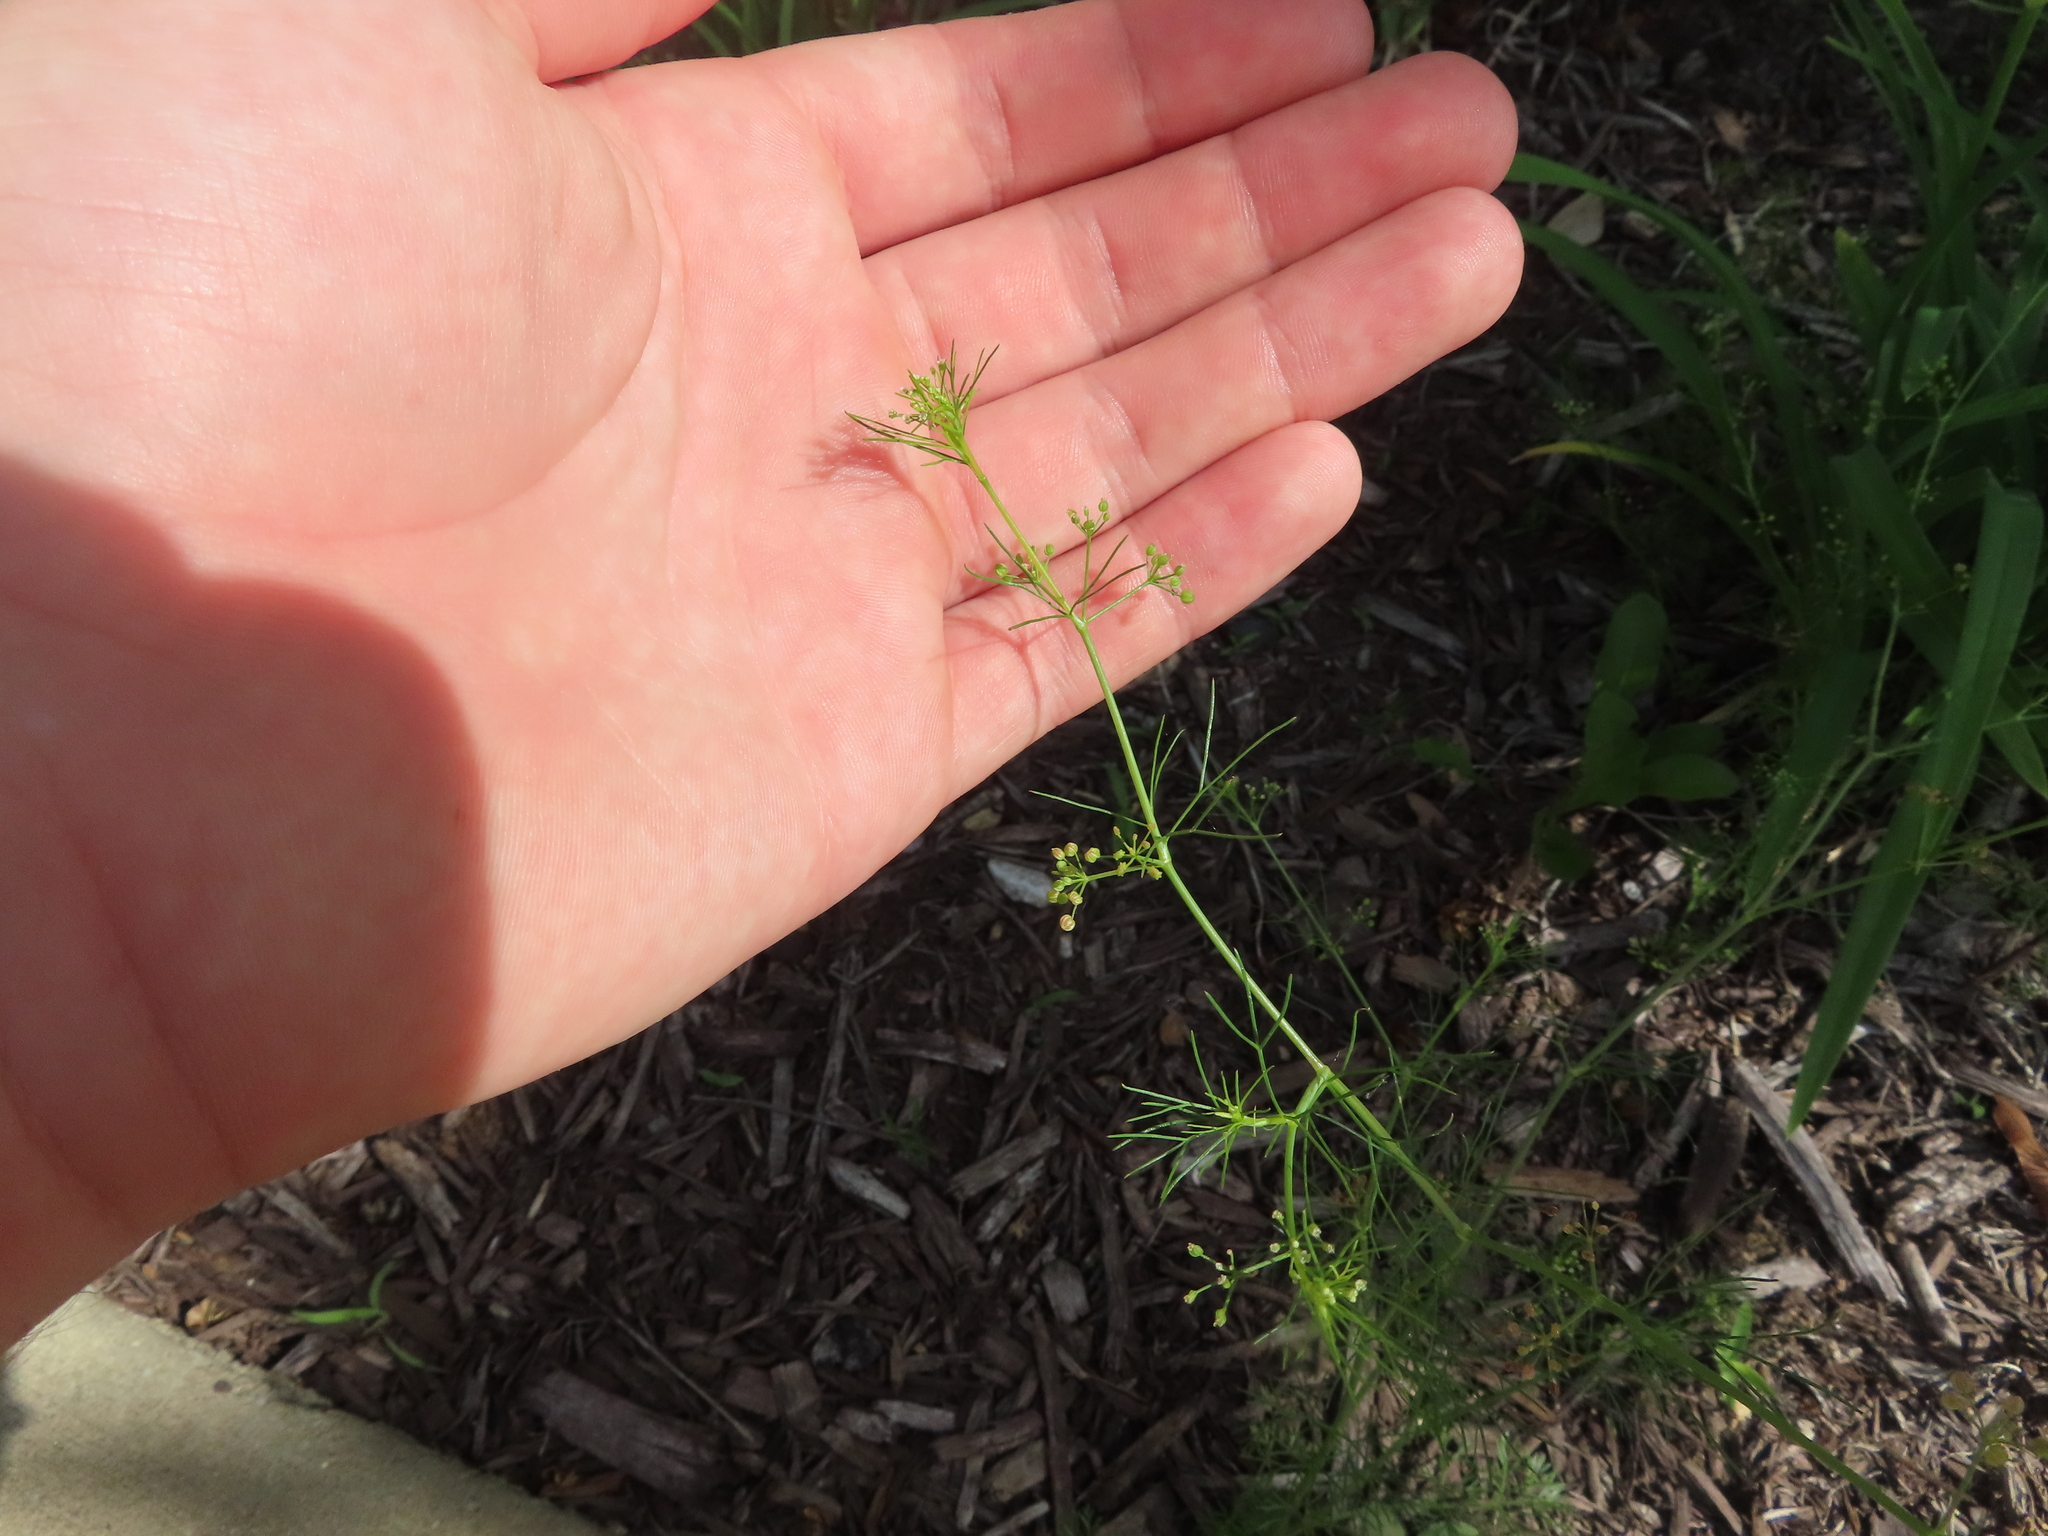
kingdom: Plantae
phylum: Tracheophyta
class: Magnoliopsida
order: Apiales
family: Apiaceae
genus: Cyclospermum
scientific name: Cyclospermum leptophyllum
